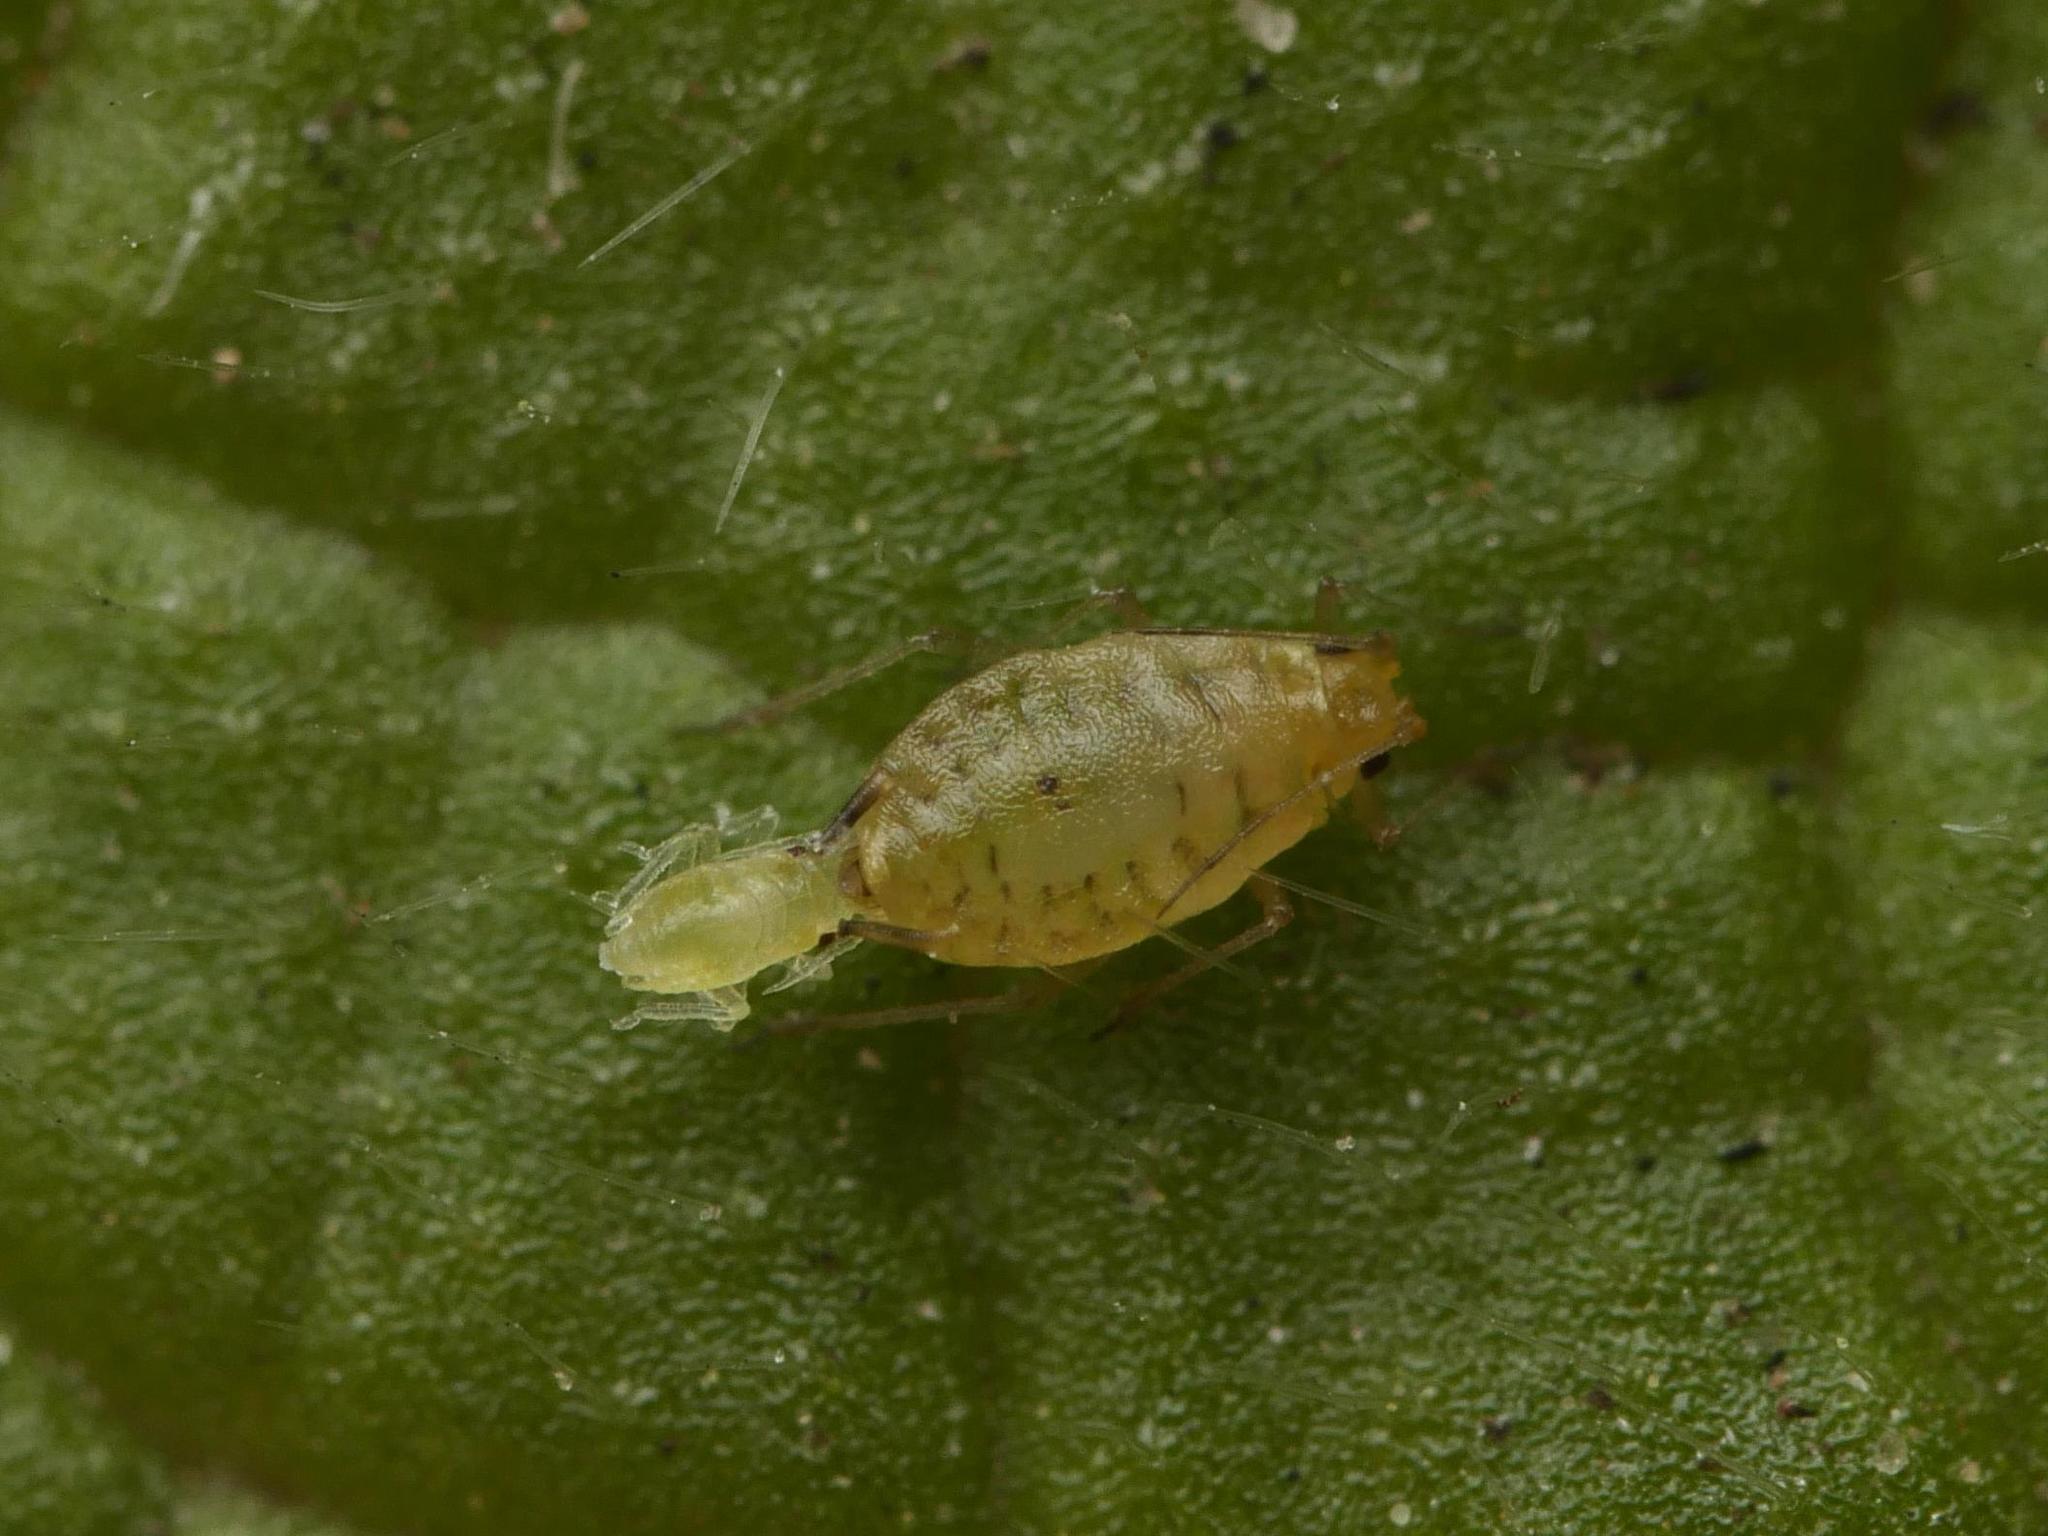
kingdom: Animalia
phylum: Arthropoda
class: Insecta
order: Hemiptera
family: Aphididae
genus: Myzus
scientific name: Myzus ornatus
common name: Ornate aphid
